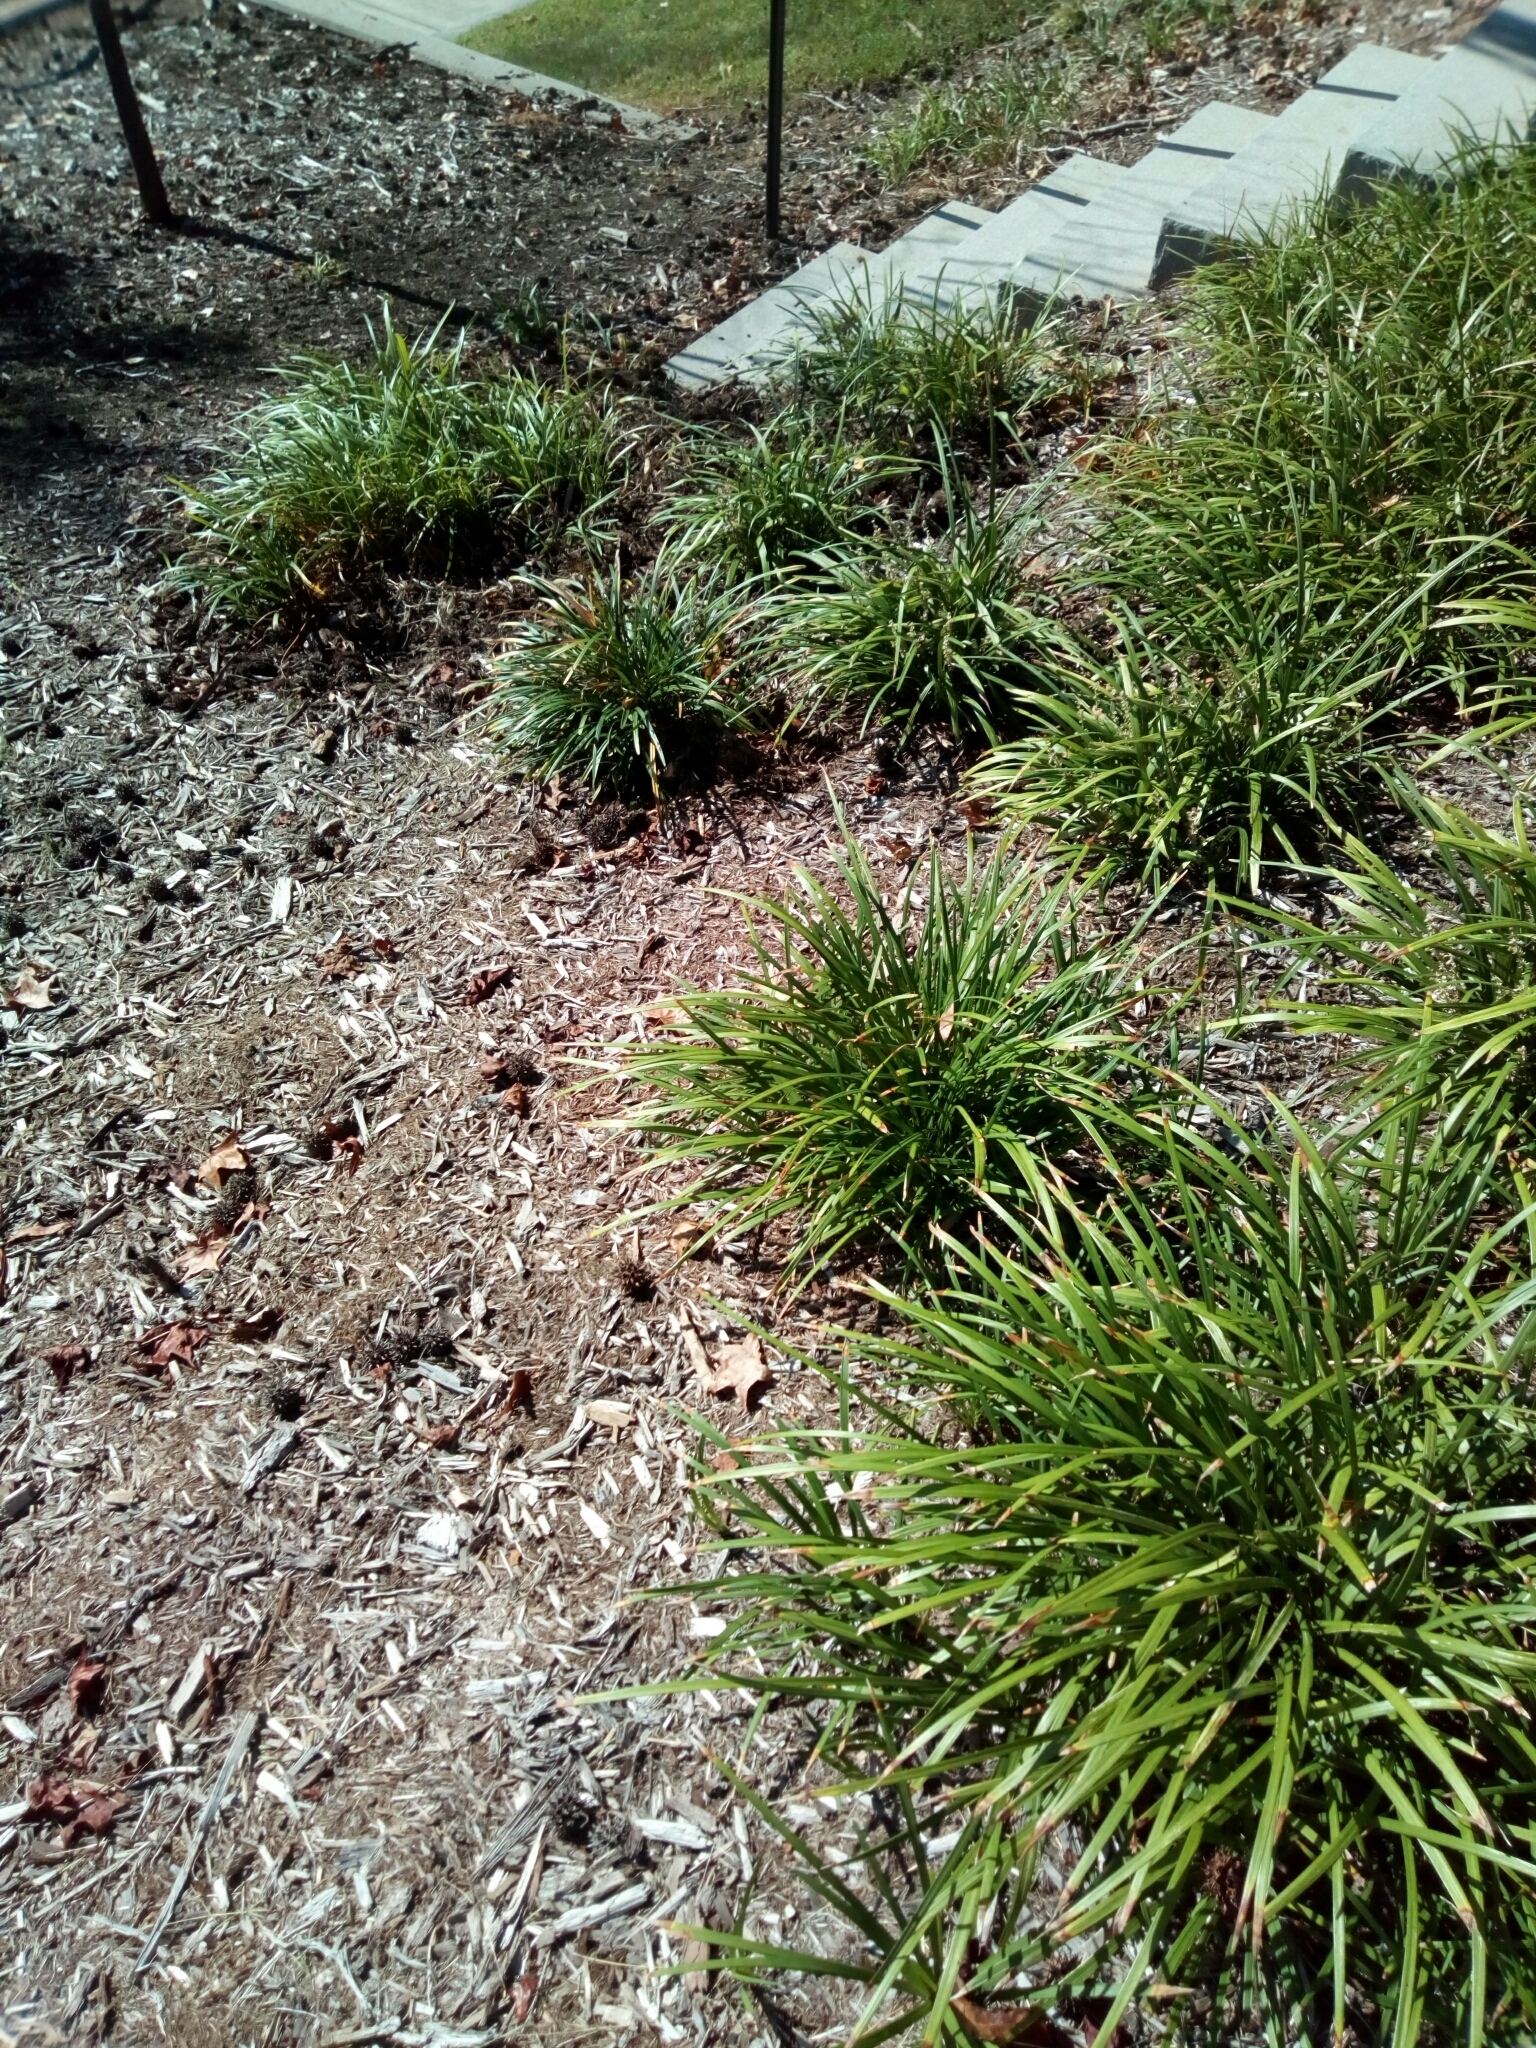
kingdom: Animalia
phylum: Arthropoda
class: Insecta
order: Lepidoptera
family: Nymphalidae
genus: Junonia
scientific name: Junonia coenia
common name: Common buckeye
